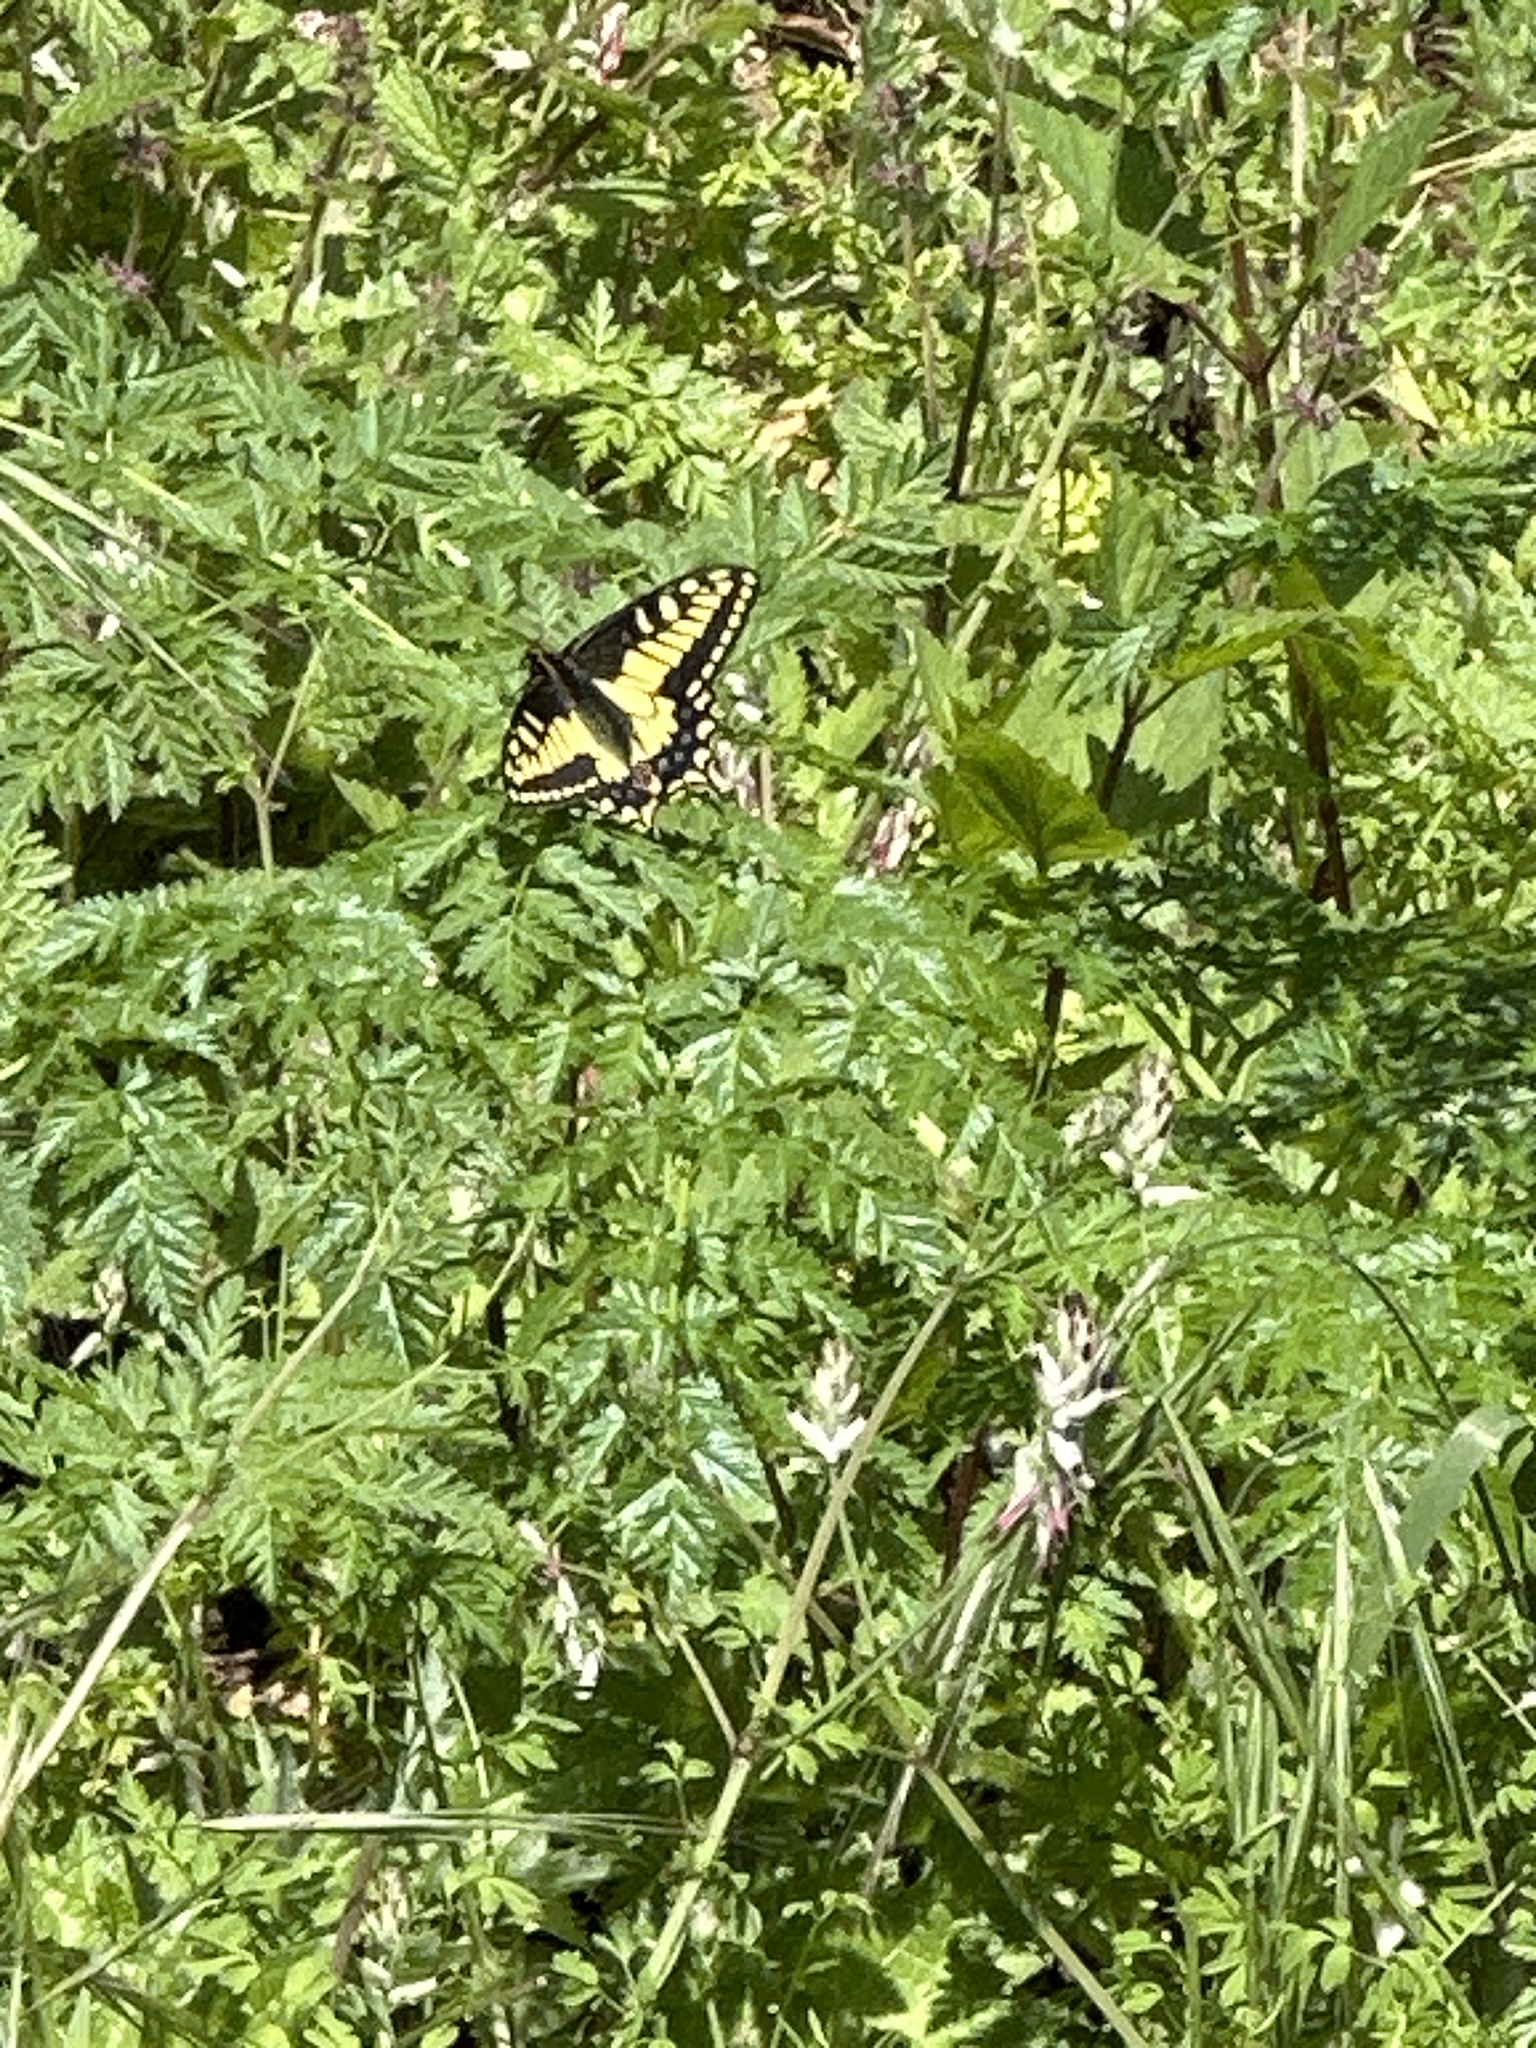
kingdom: Animalia
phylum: Arthropoda
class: Insecta
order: Lepidoptera
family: Papilionidae
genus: Papilio
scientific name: Papilio zelicaon
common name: Anise swallowtail
